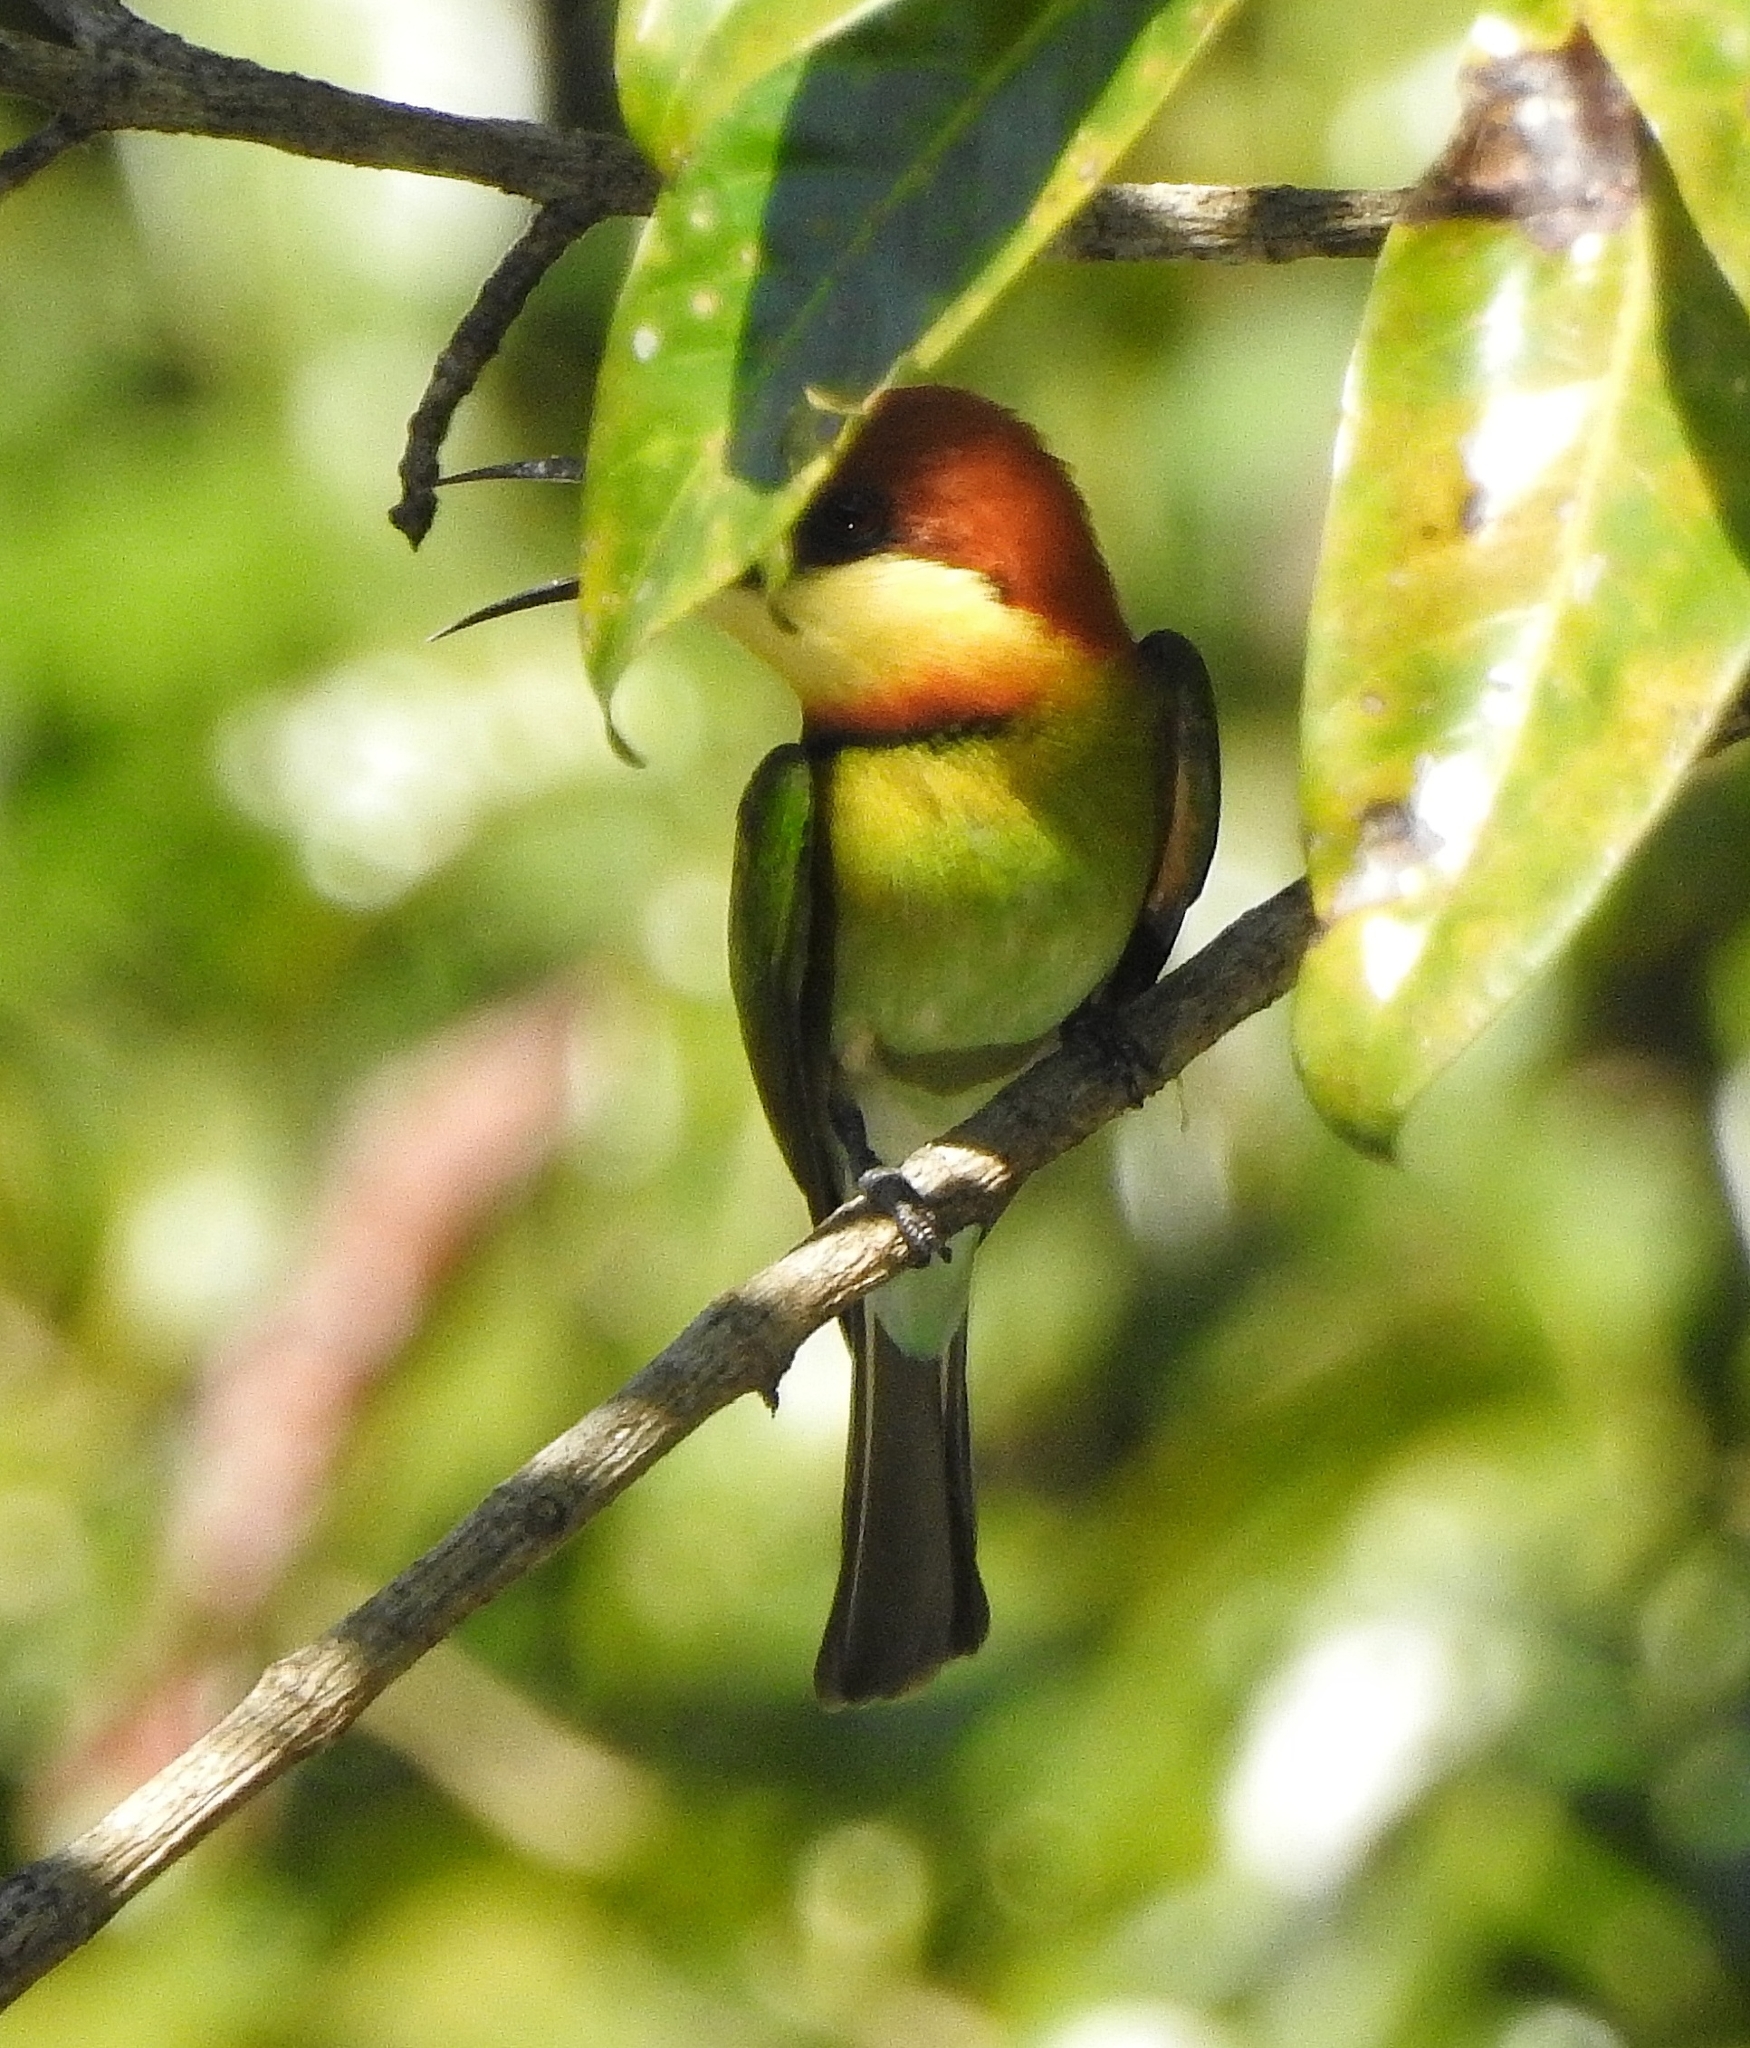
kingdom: Animalia
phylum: Chordata
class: Aves
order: Coraciiformes
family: Meropidae
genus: Merops
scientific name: Merops leschenaulti
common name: Chestnut-headed bee-eater
